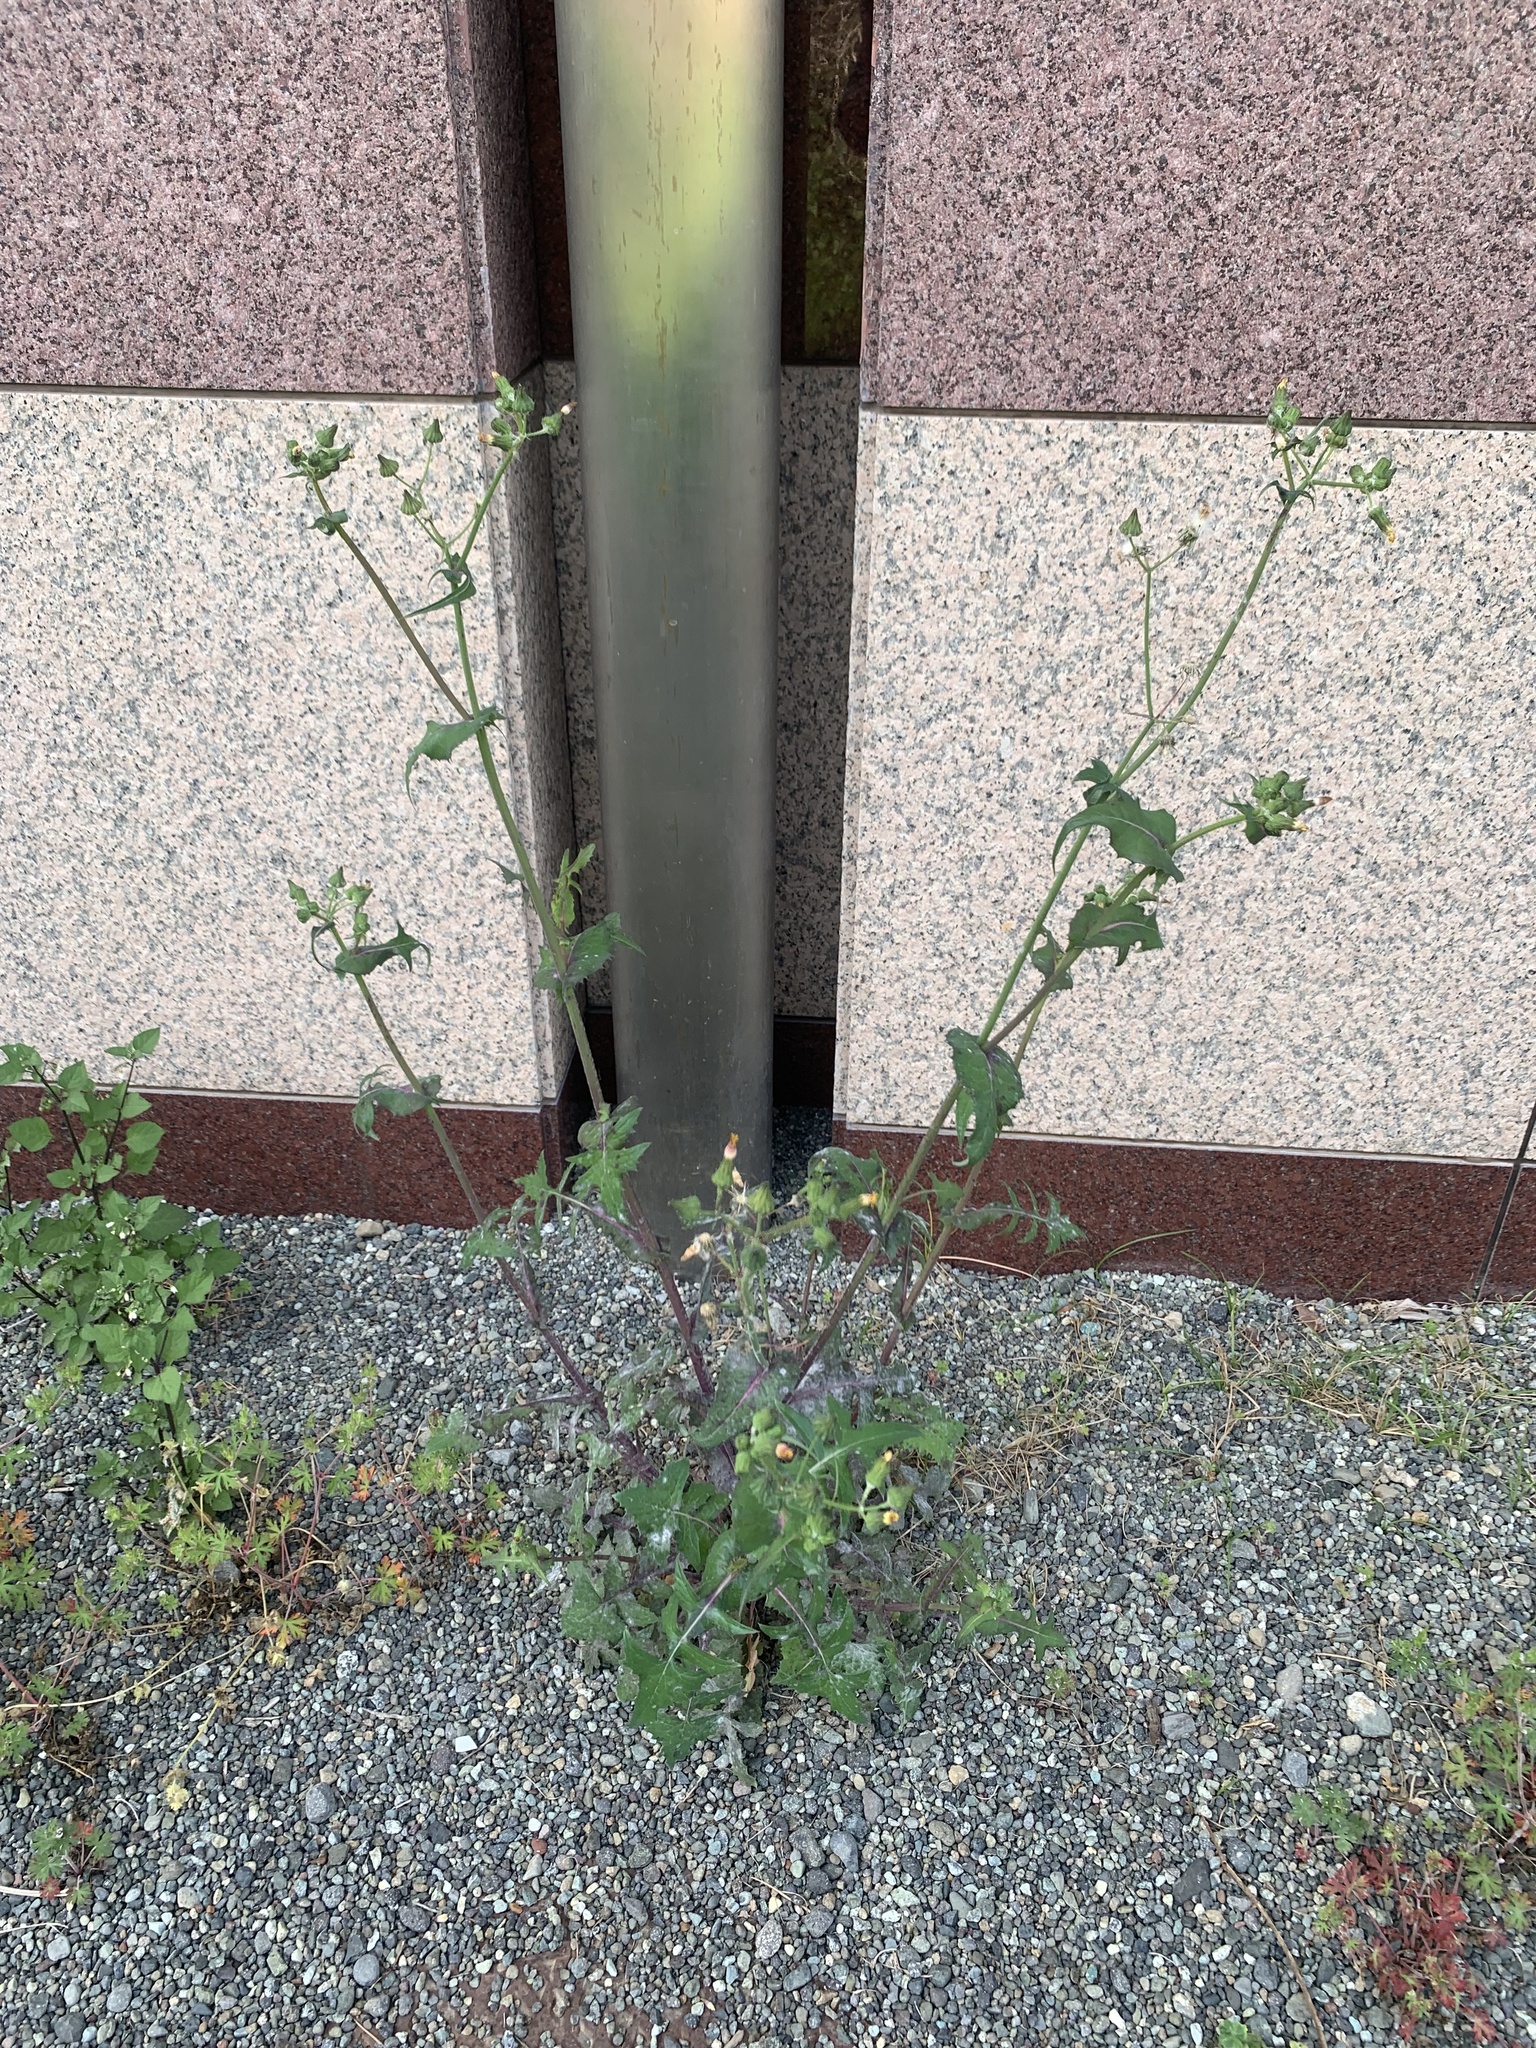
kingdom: Plantae
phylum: Tracheophyta
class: Magnoliopsida
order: Asterales
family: Asteraceae
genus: Sonchus
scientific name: Sonchus oleraceus
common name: Common sowthistle
